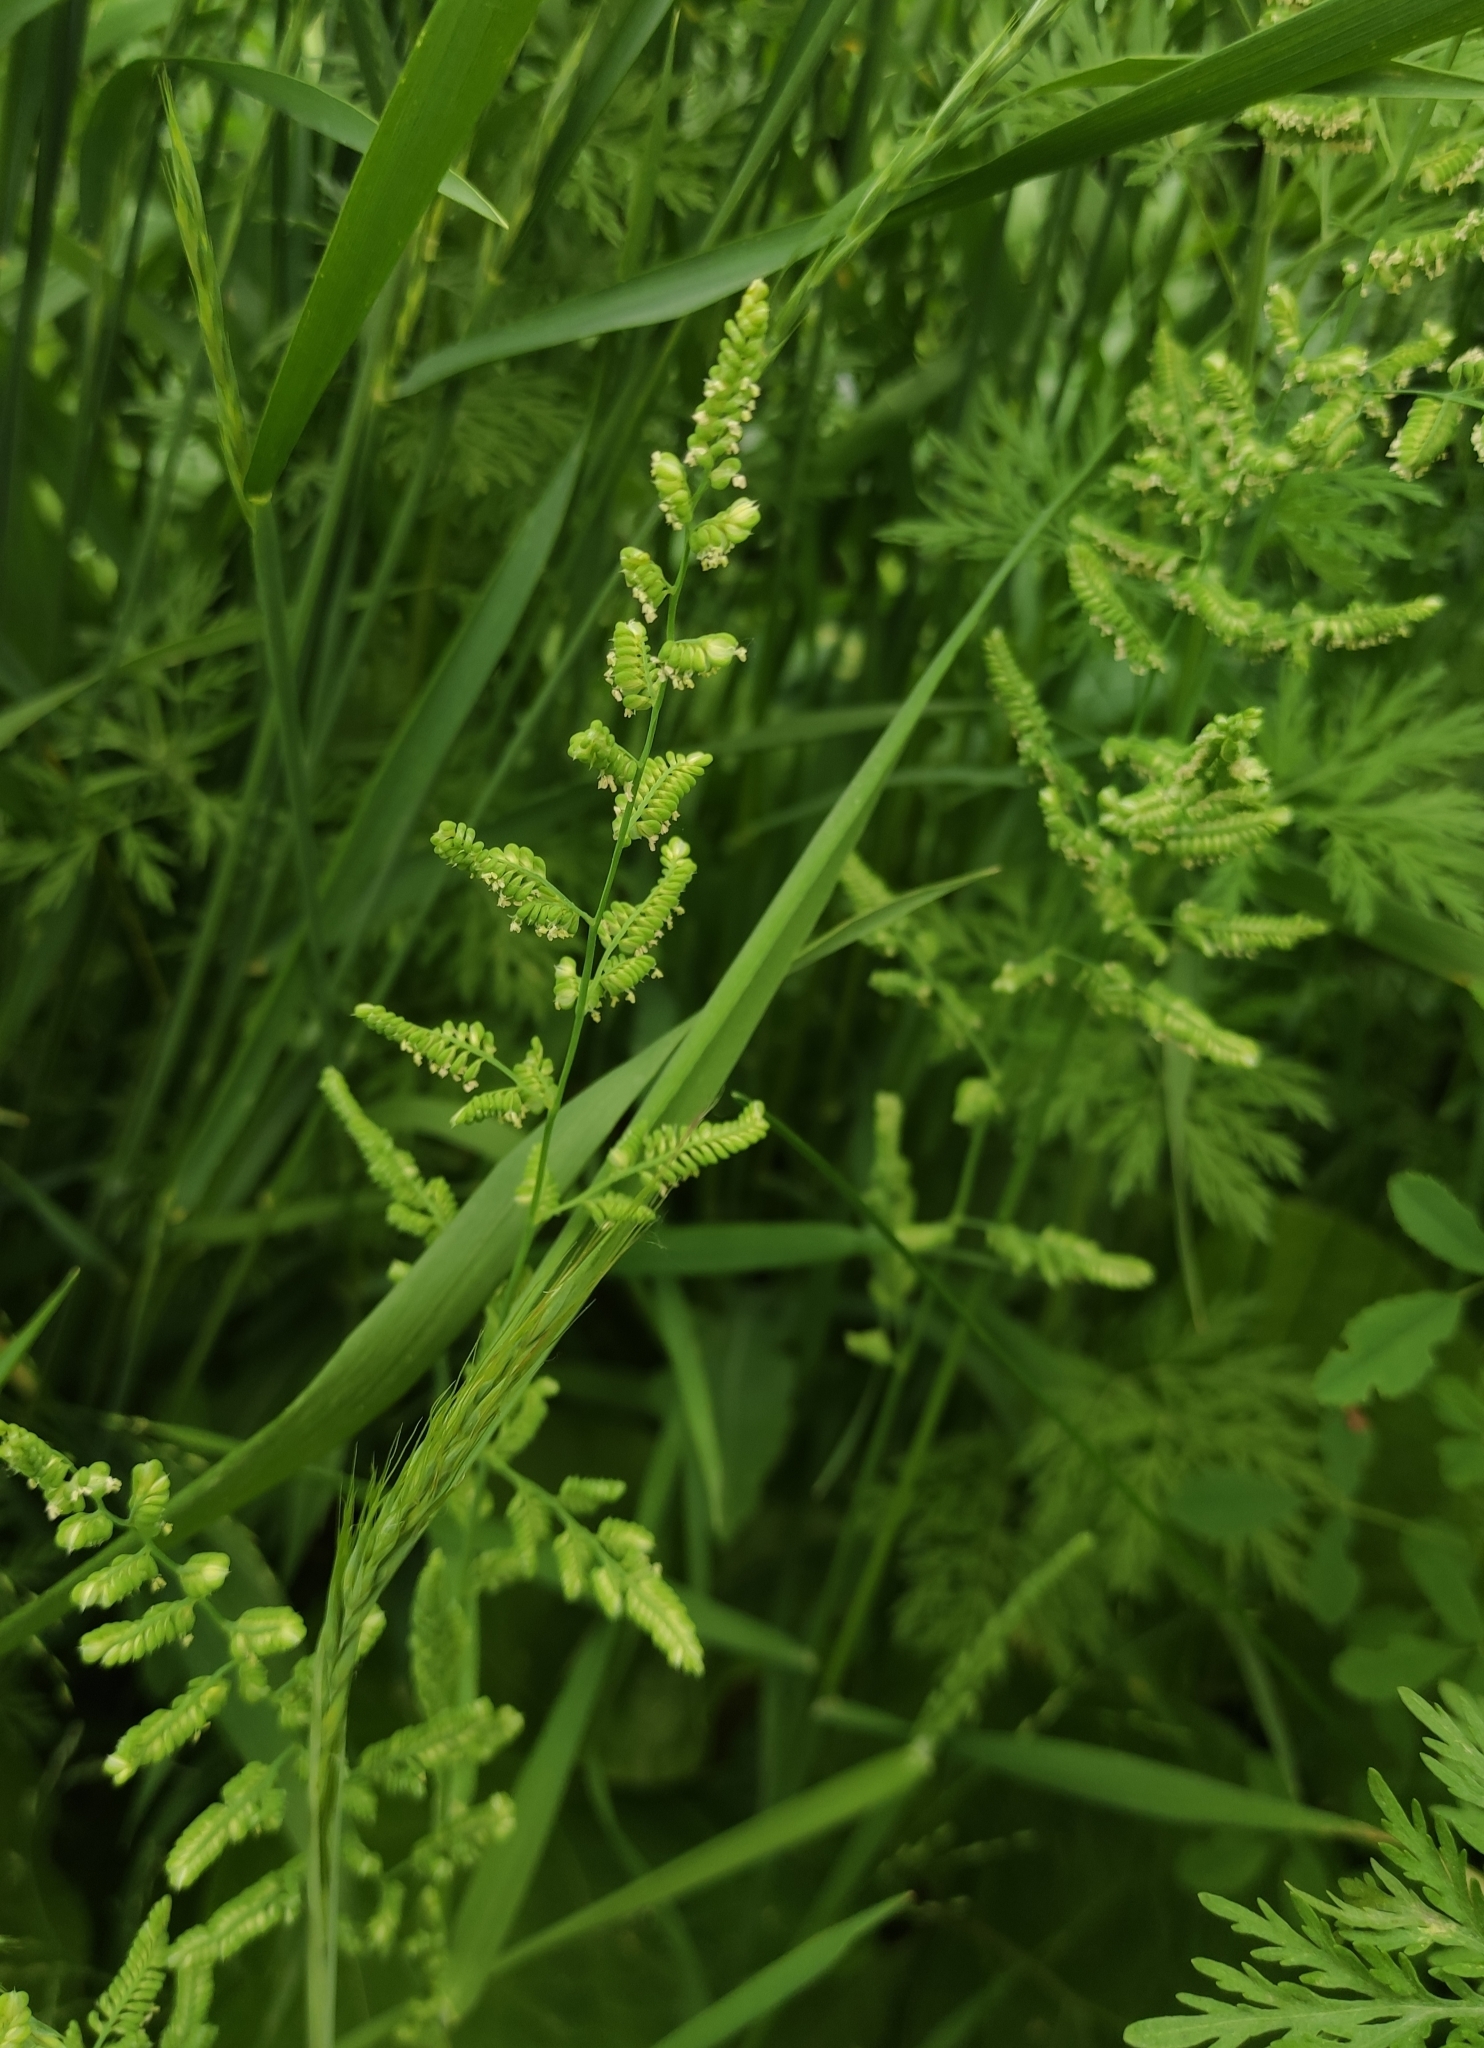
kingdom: Plantae
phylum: Tracheophyta
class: Liliopsida
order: Poales
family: Poaceae
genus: Beckmannia
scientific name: Beckmannia syzigachne
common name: American slough-grass
